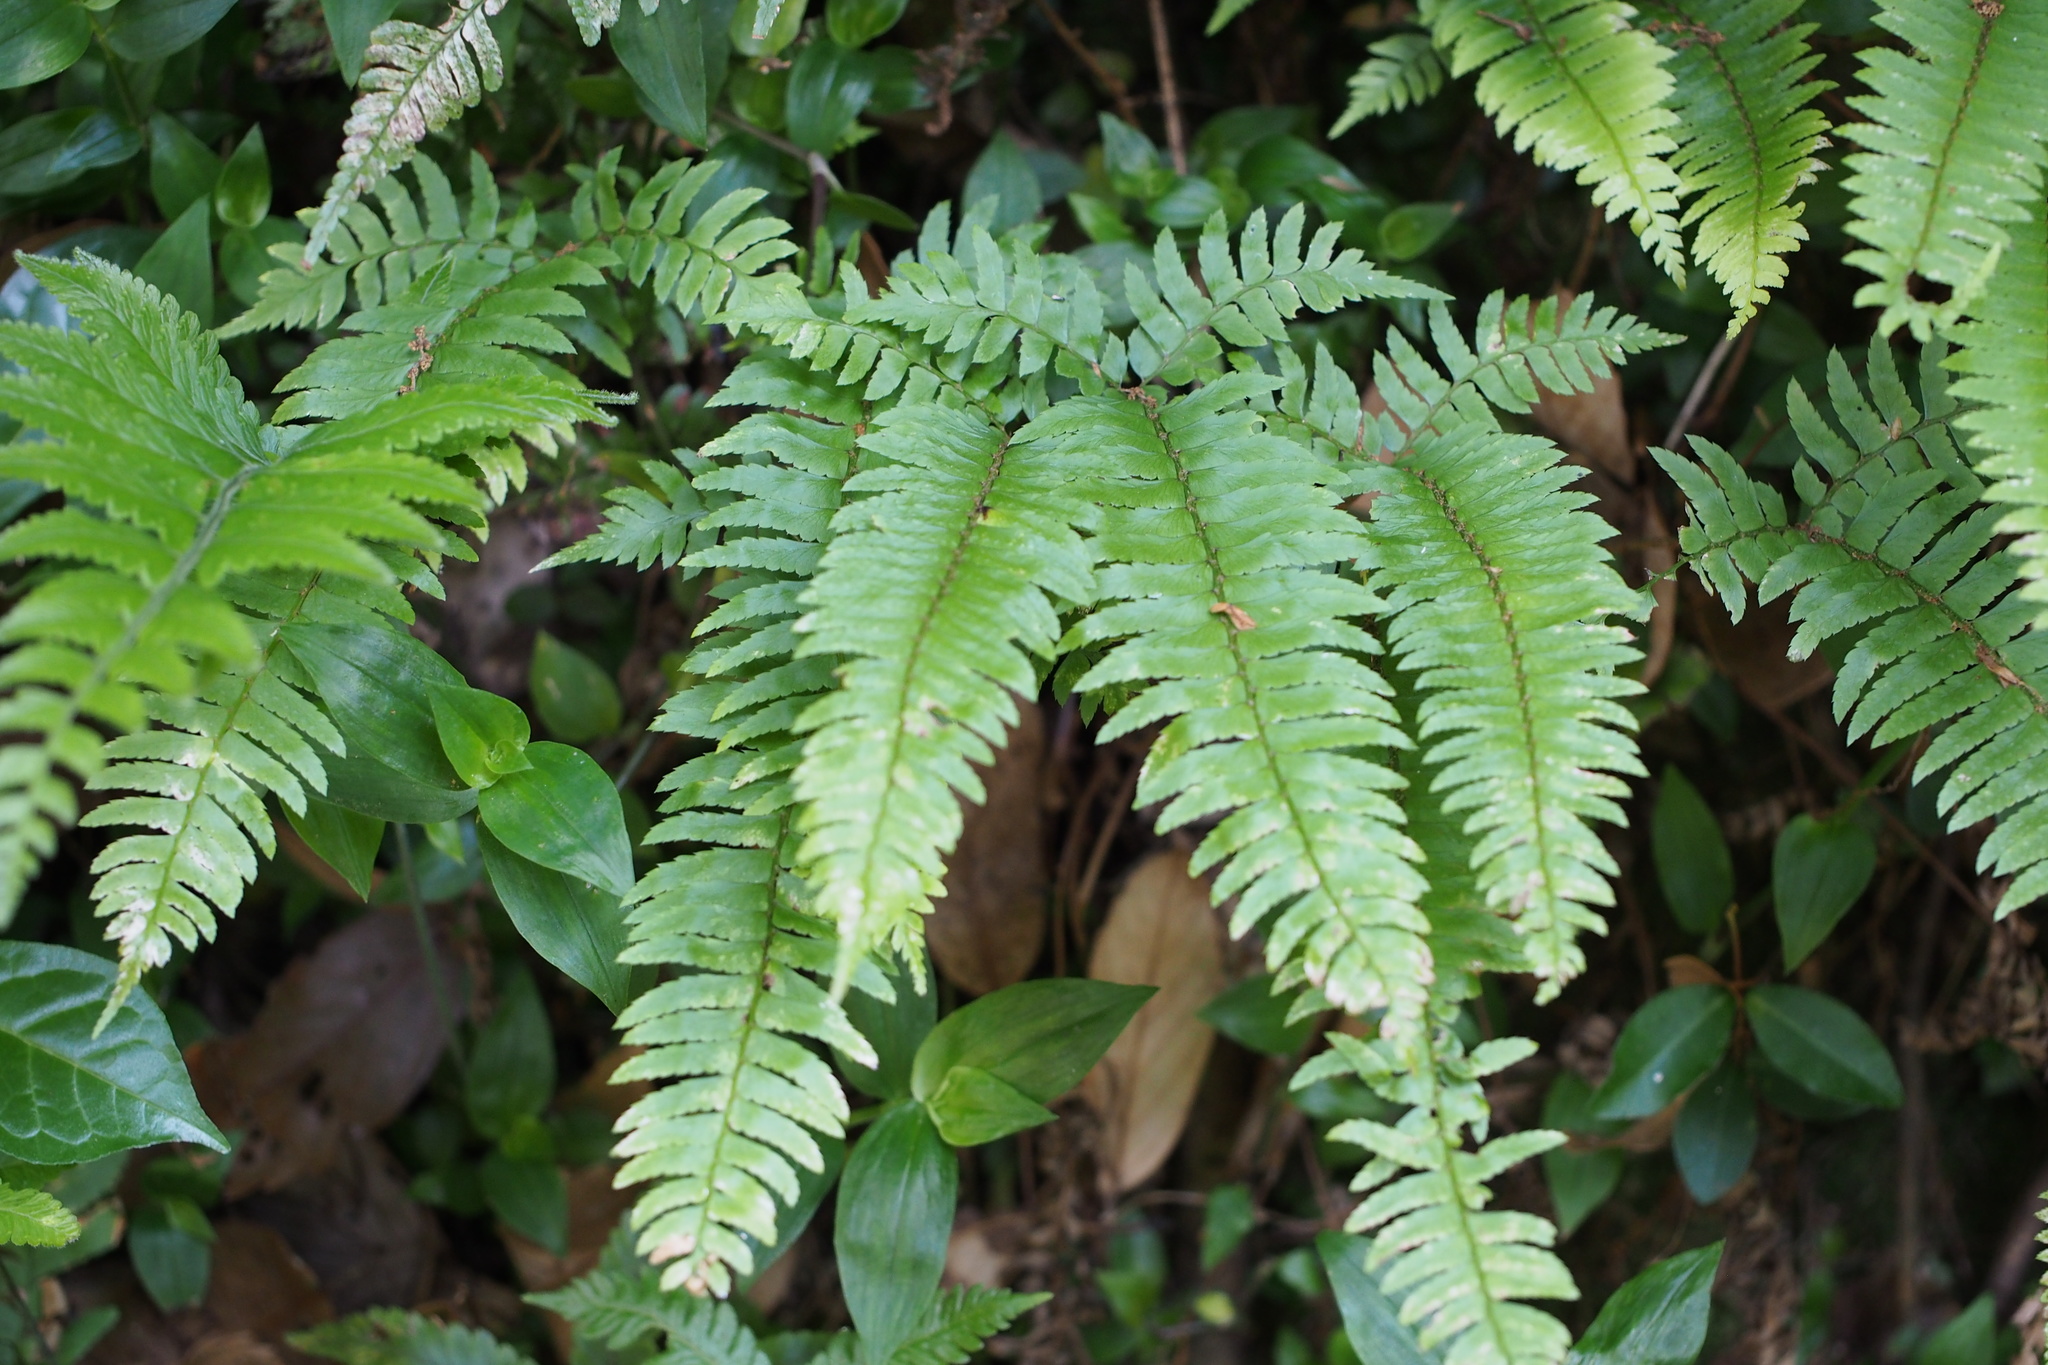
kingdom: Plantae
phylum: Tracheophyta
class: Polypodiopsida
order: Polypodiales
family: Dryopteridaceae
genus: Polystichum
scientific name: Polystichum tripteron
